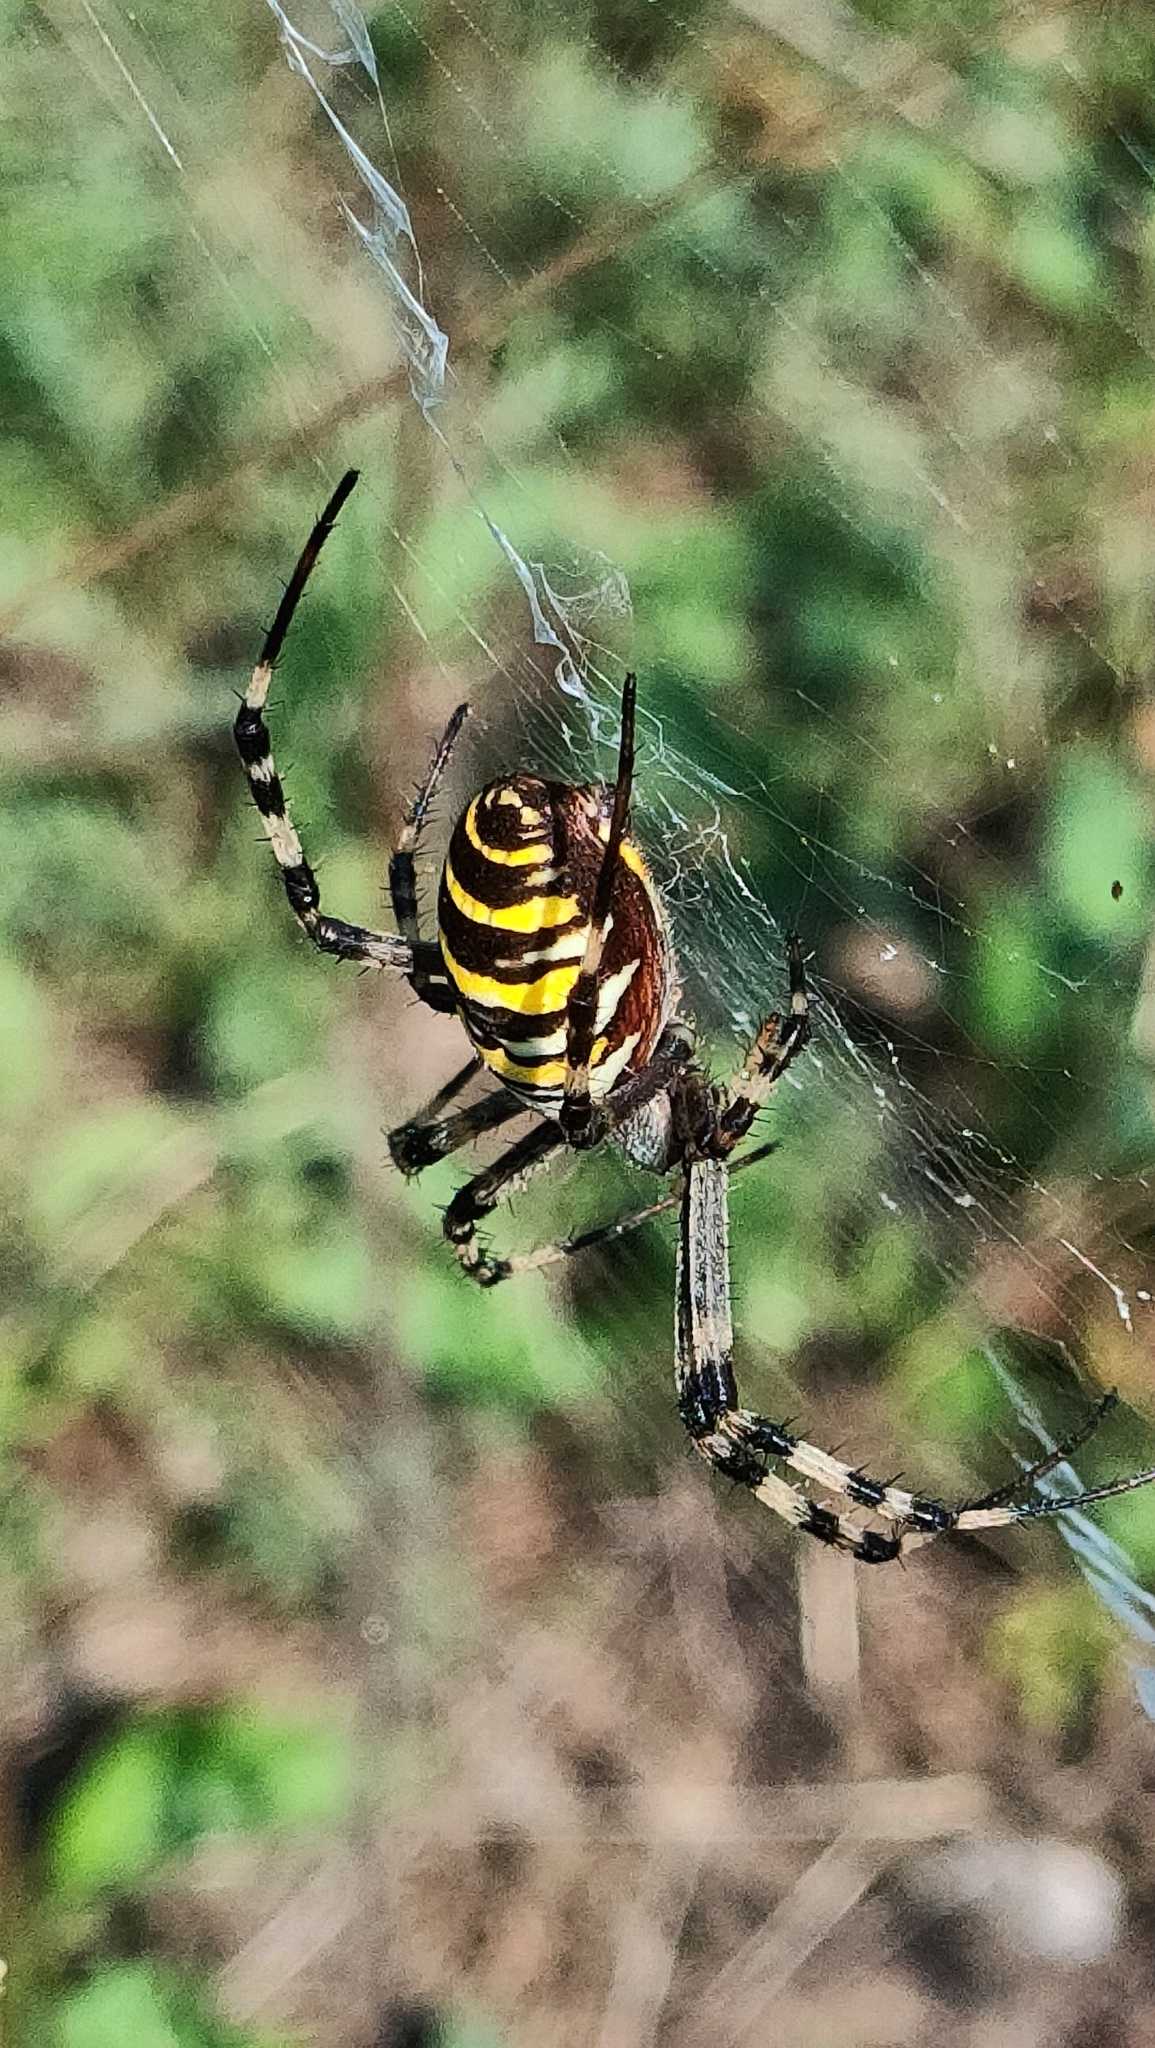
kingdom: Animalia
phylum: Arthropoda
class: Arachnida
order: Araneae
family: Araneidae
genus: Argiope
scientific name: Argiope bruennichi
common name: Wasp spider
